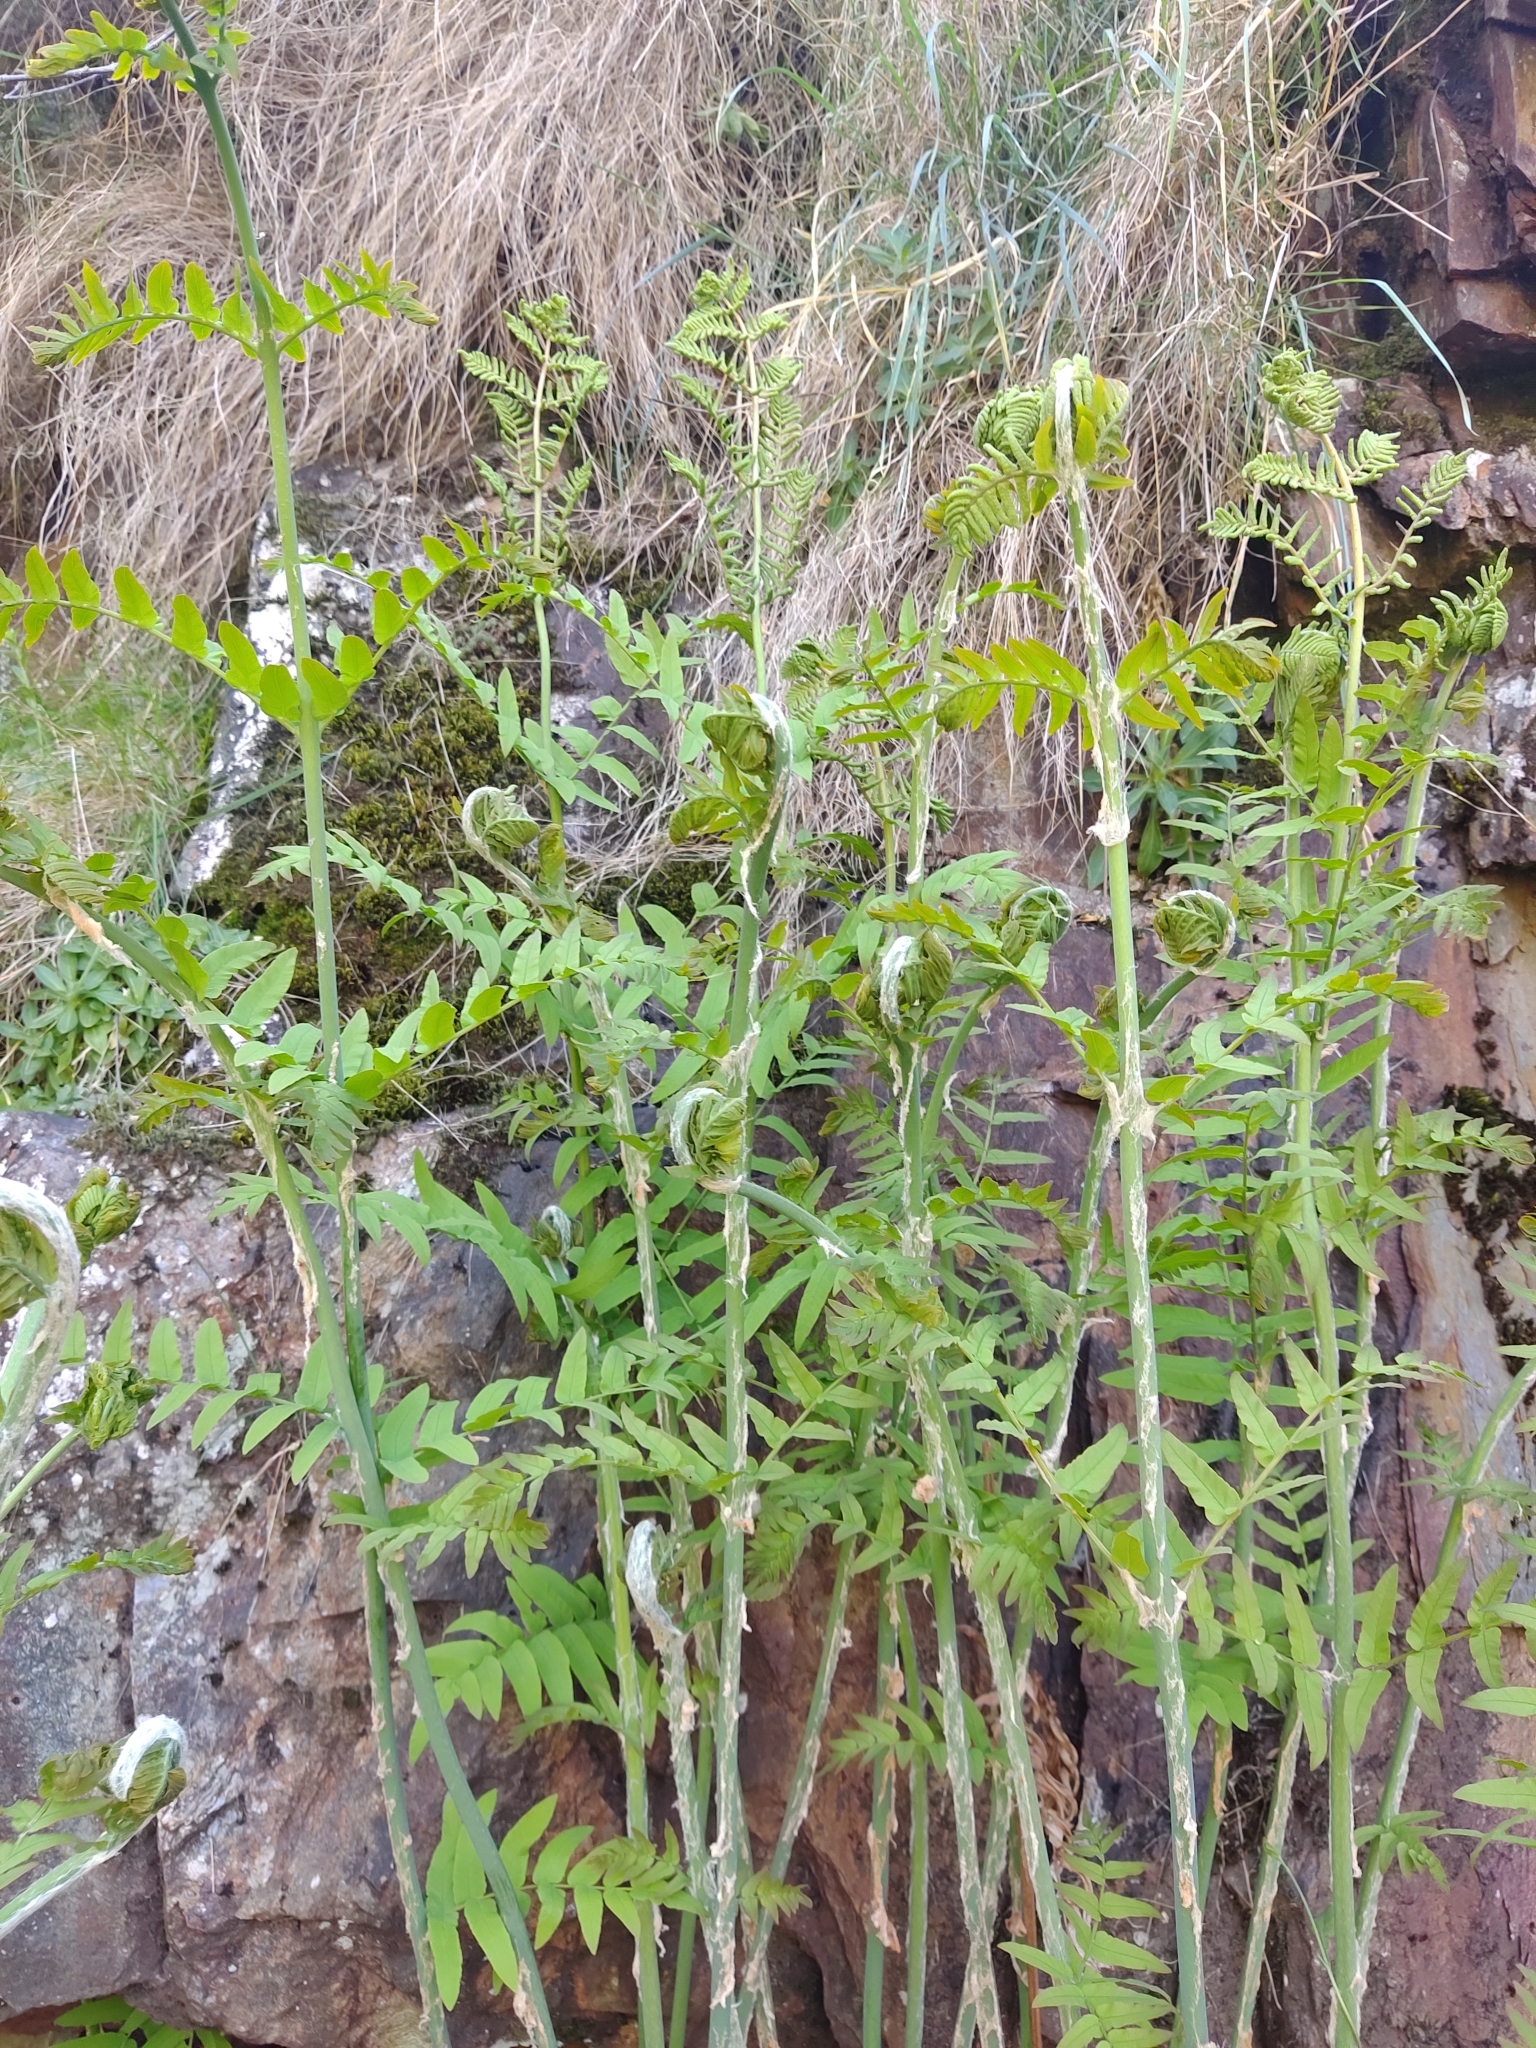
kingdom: Plantae
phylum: Tracheophyta
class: Polypodiopsida
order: Osmundales
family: Osmundaceae
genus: Osmunda
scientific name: Osmunda regalis
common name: Royal fern
